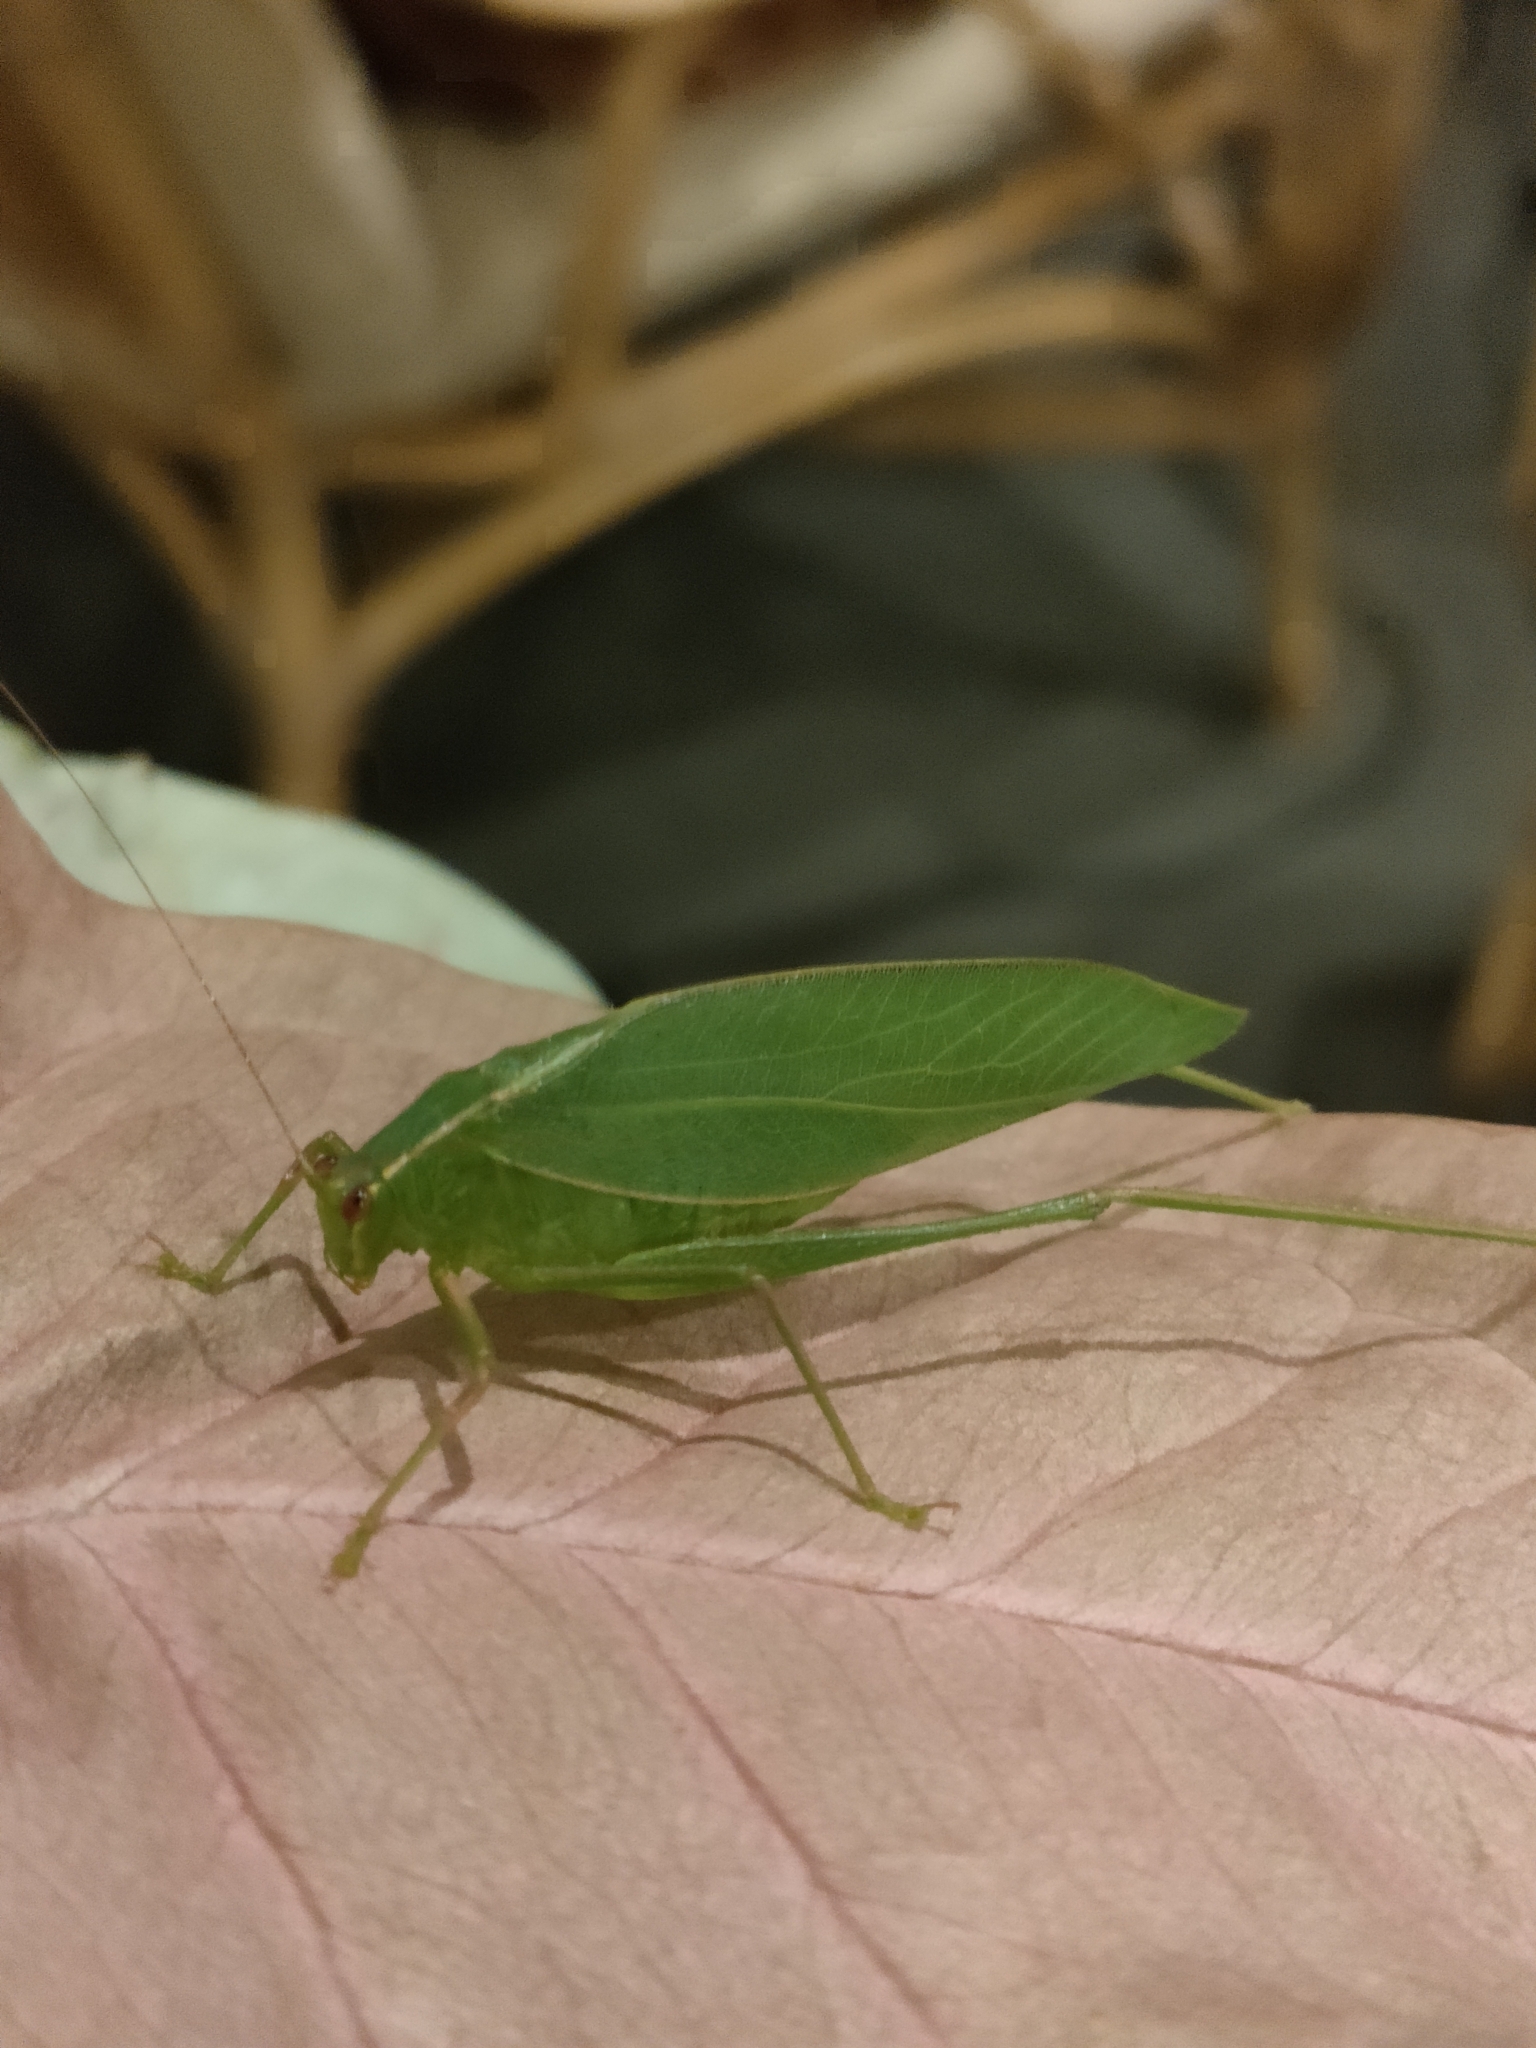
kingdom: Animalia
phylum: Arthropoda
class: Insecta
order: Orthoptera
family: Tettigoniidae
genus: Caedicia
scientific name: Caedicia simplex
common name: Common garden katydid
